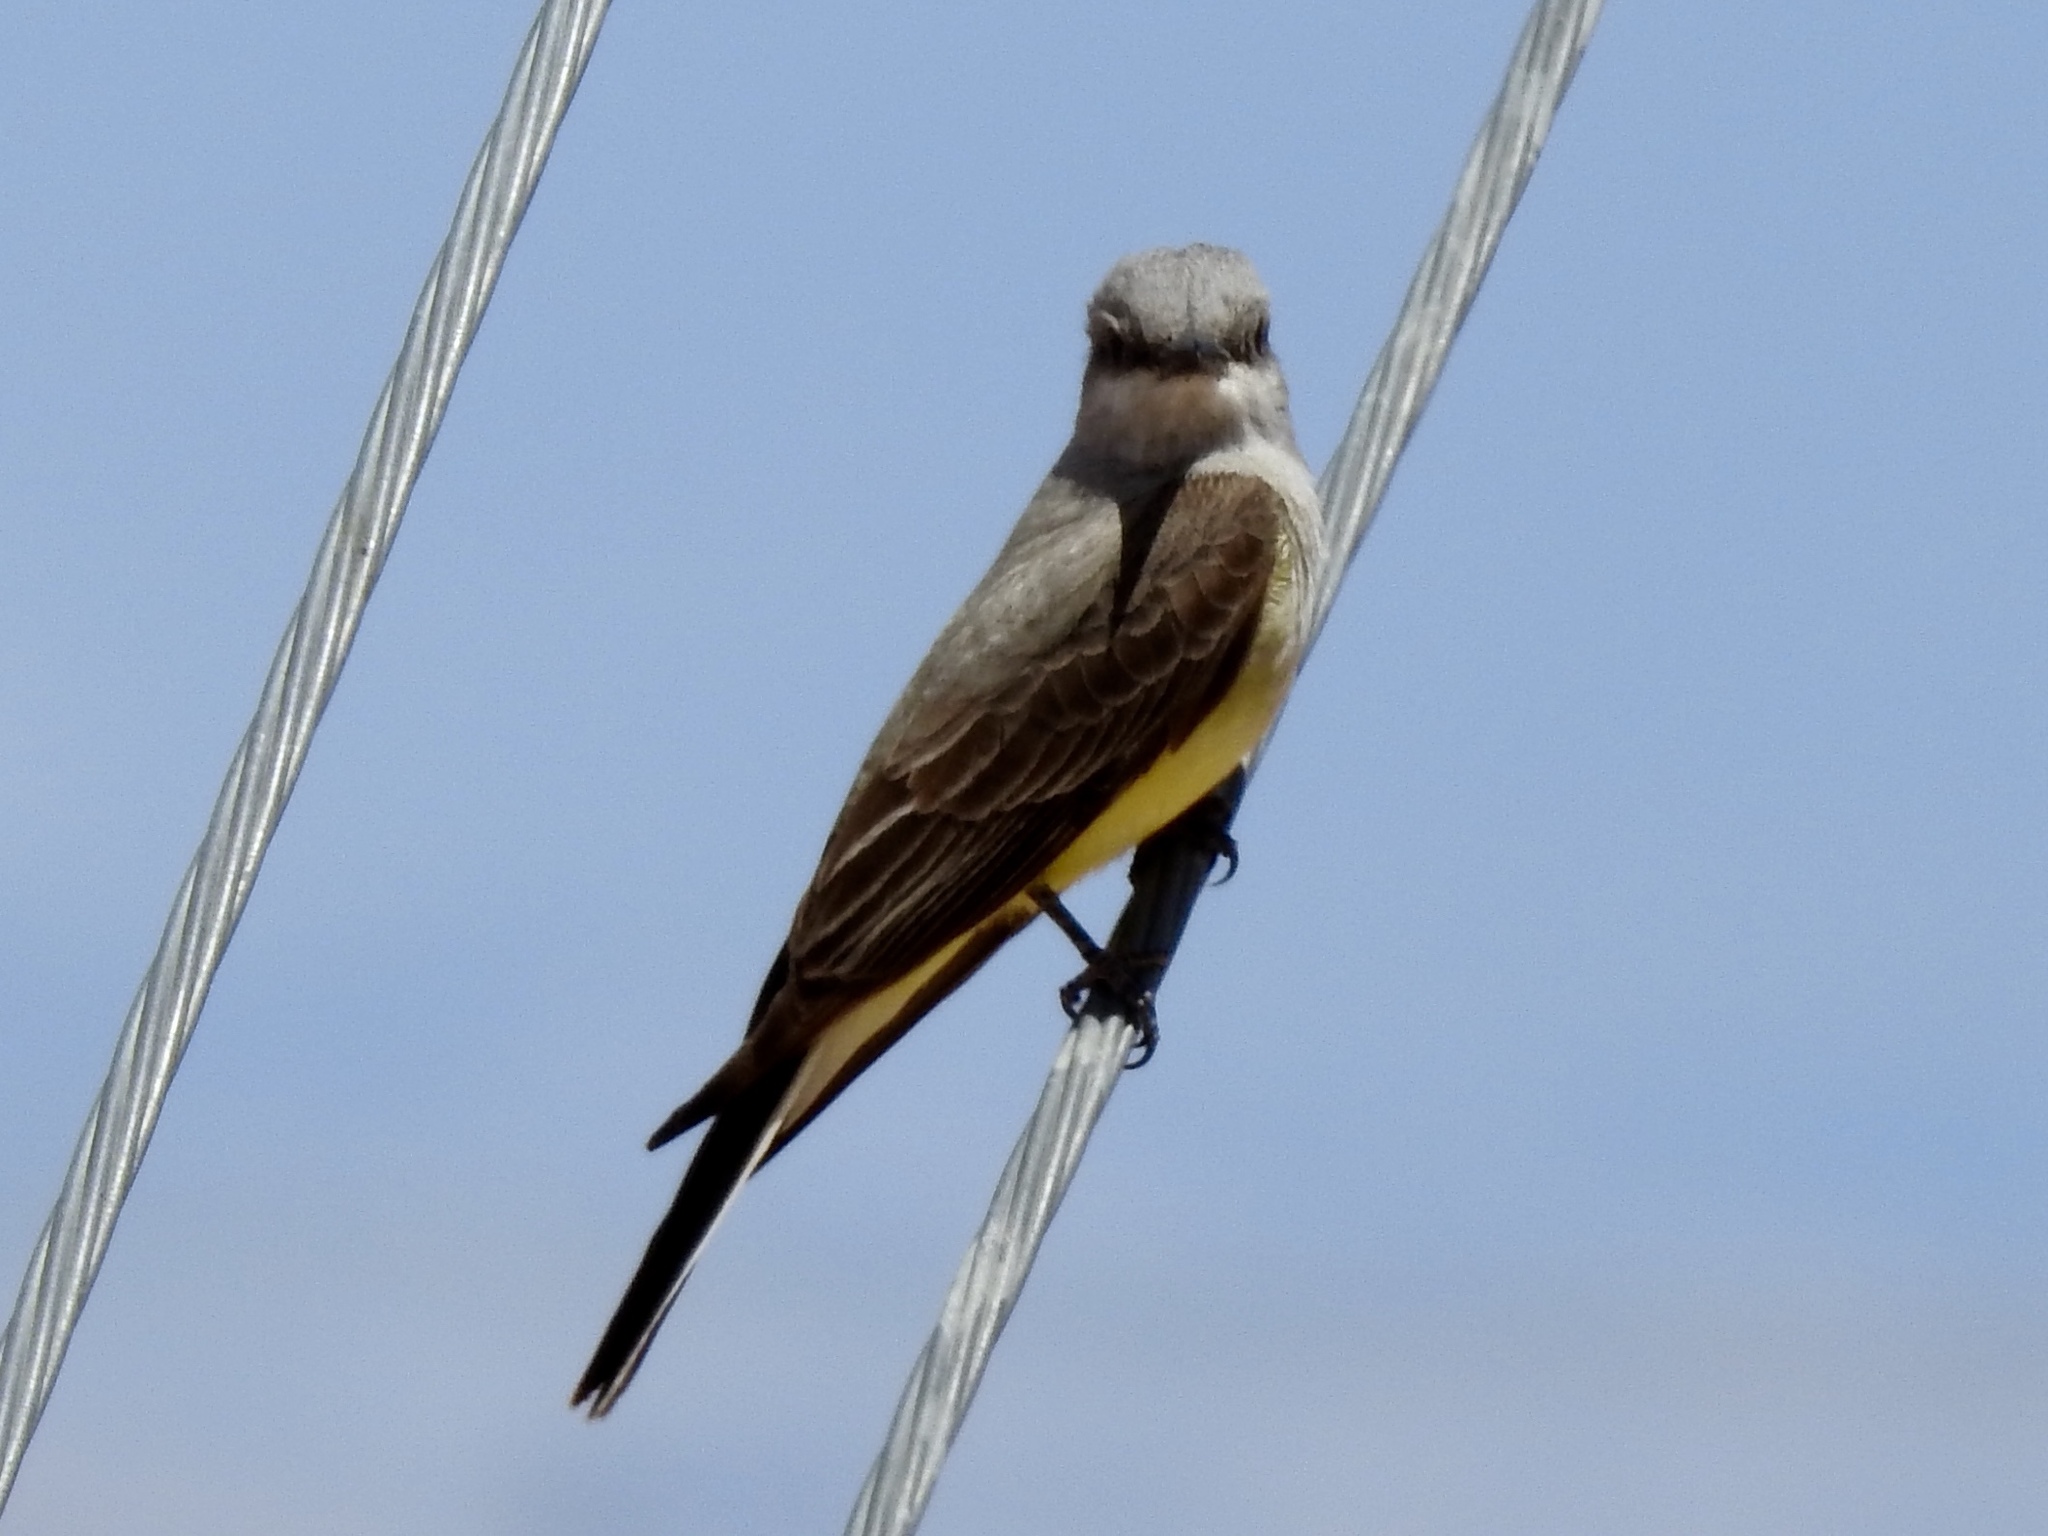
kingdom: Animalia
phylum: Chordata
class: Aves
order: Passeriformes
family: Tyrannidae
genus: Tyrannus
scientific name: Tyrannus verticalis
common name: Western kingbird
